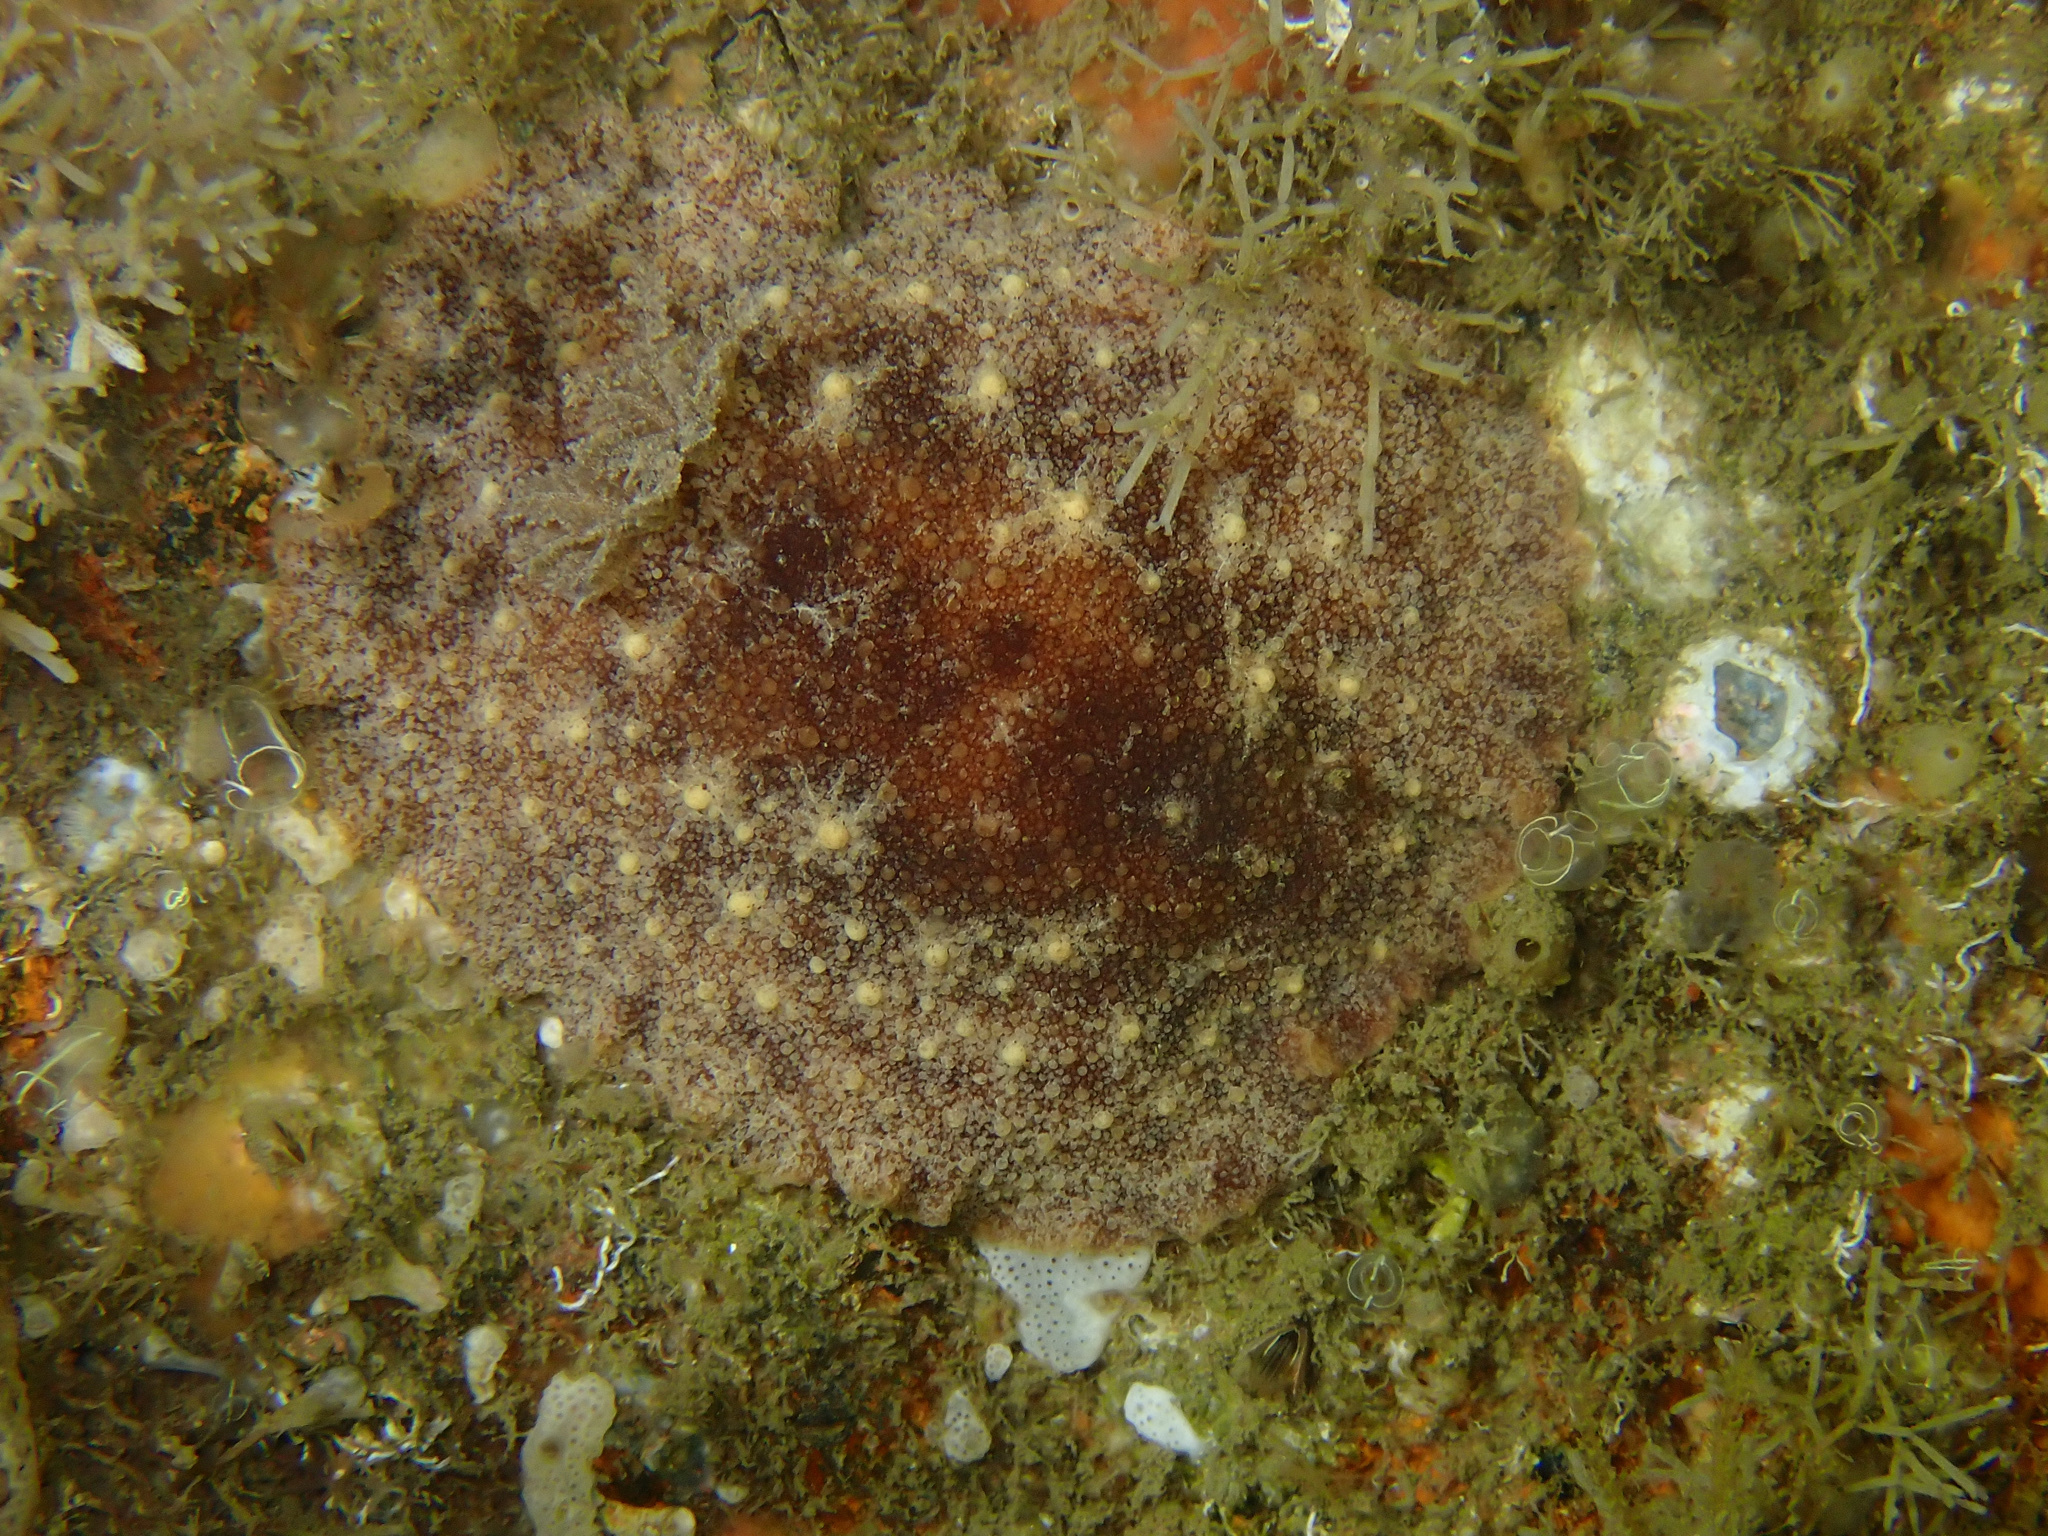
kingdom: Animalia
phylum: Mollusca
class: Gastropoda
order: Nudibranchia
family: Discodorididae
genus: Geitodoris
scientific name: Geitodoris planata
